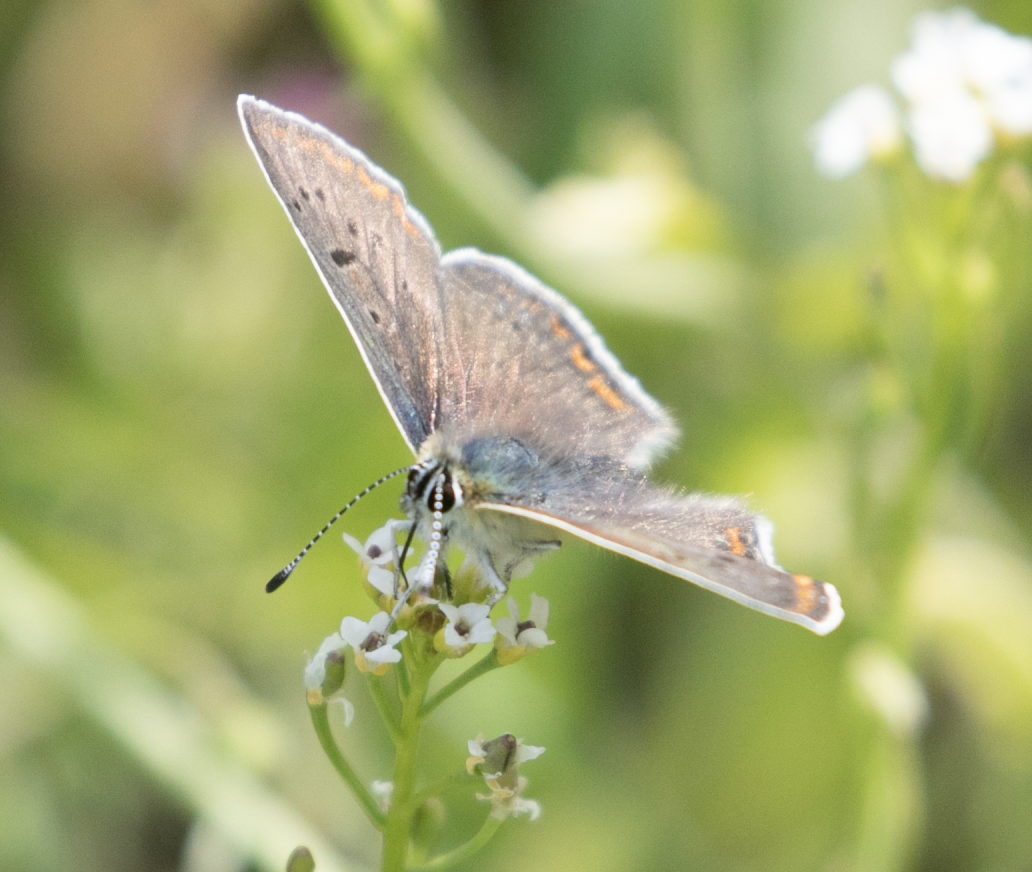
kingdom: Animalia
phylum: Arthropoda
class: Insecta
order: Lepidoptera
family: Lycaenidae
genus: Loweia
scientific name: Loweia tityrus
